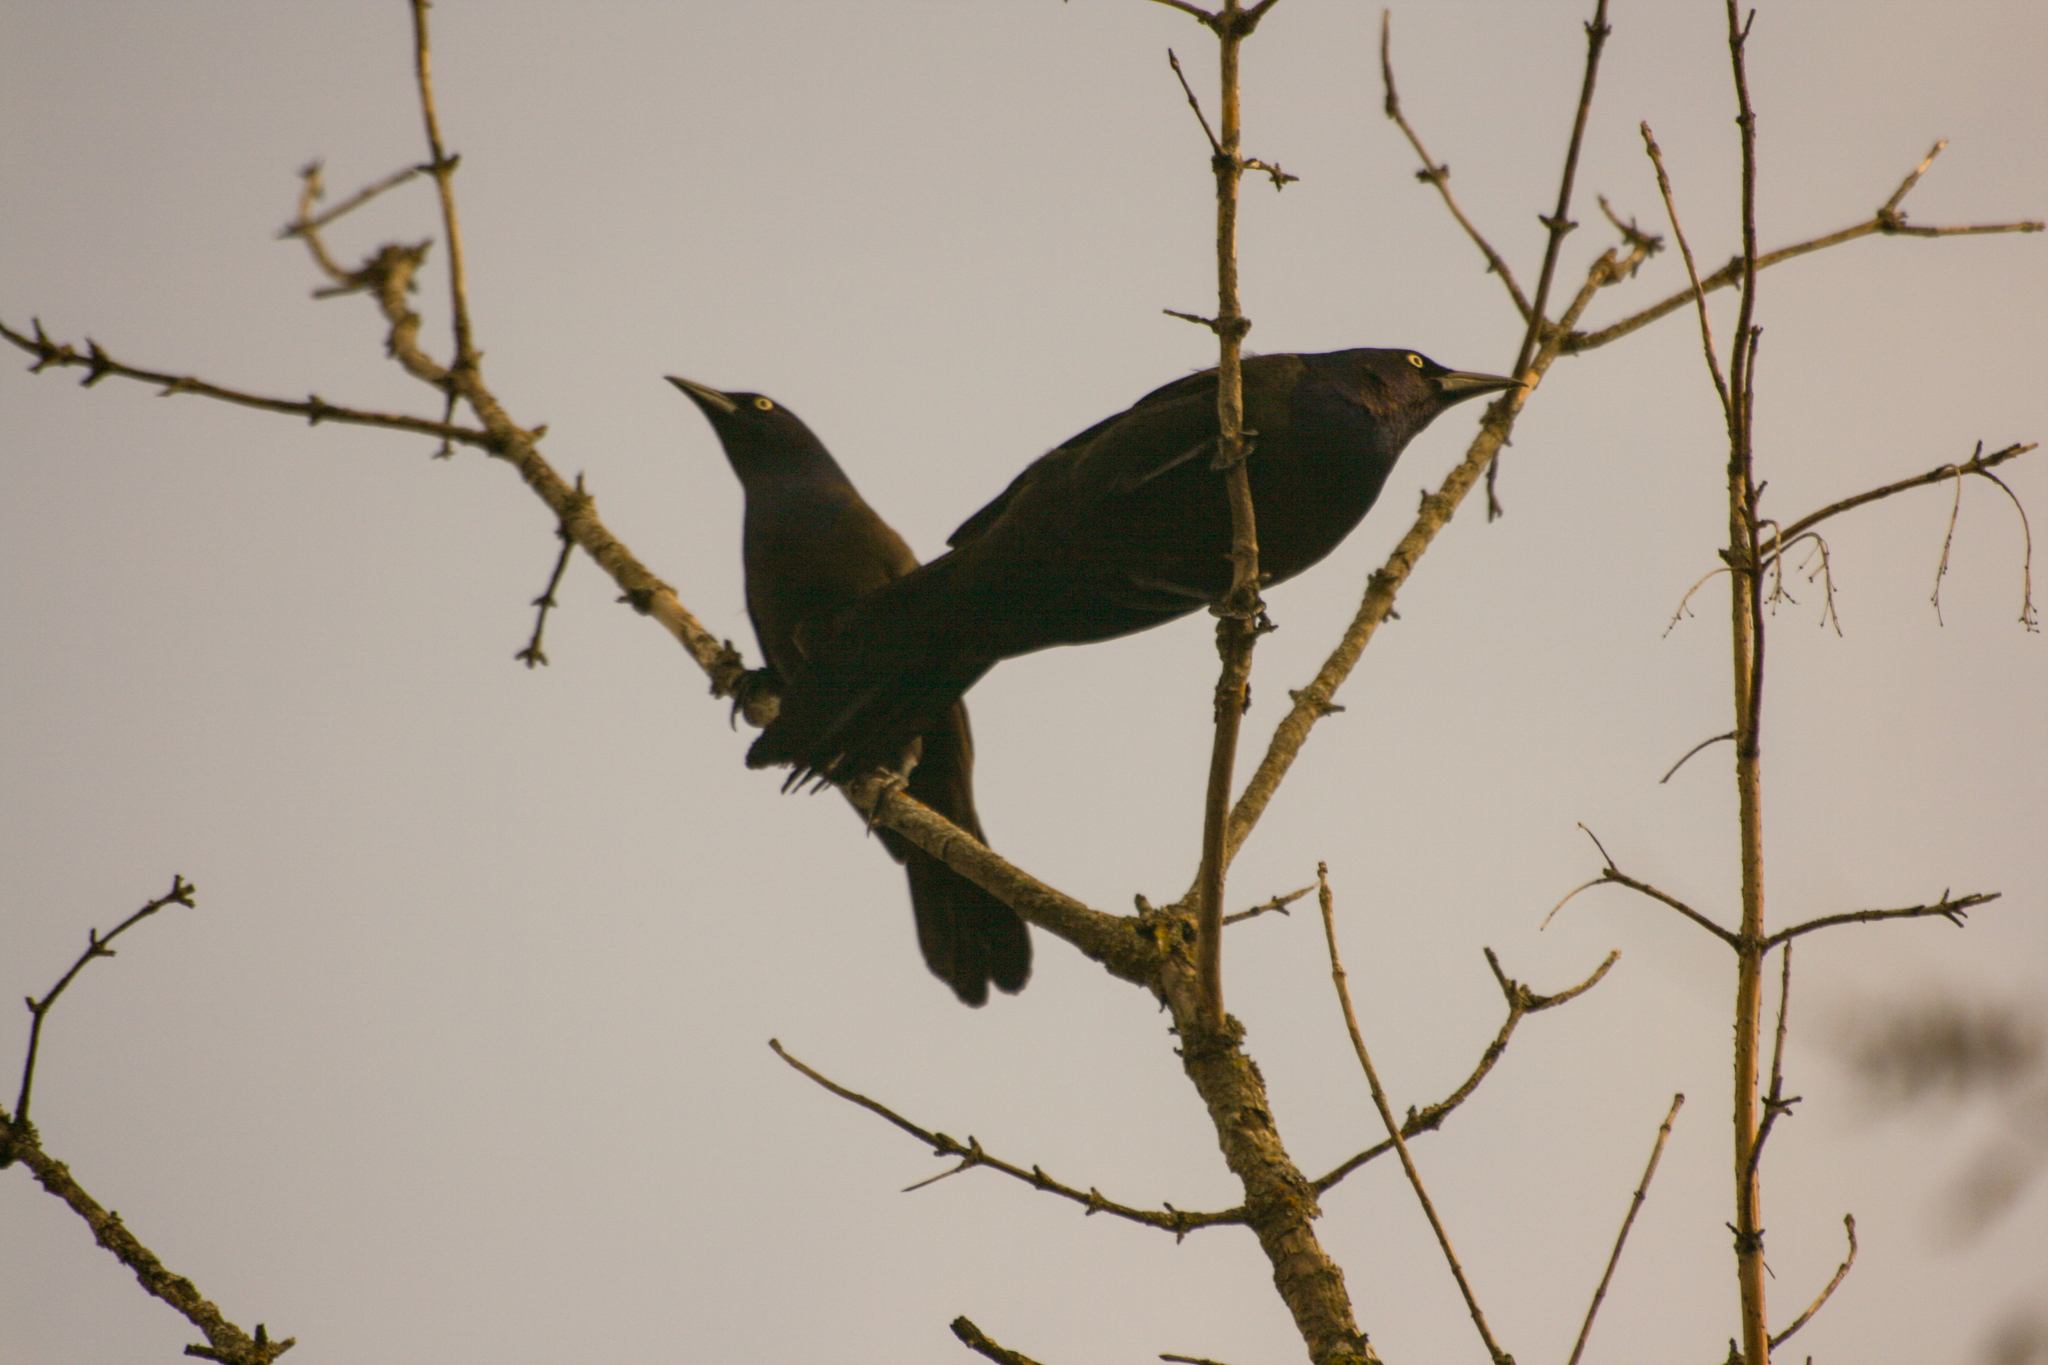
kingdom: Animalia
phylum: Chordata
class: Aves
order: Passeriformes
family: Icteridae
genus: Quiscalus
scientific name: Quiscalus quiscula
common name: Common grackle
